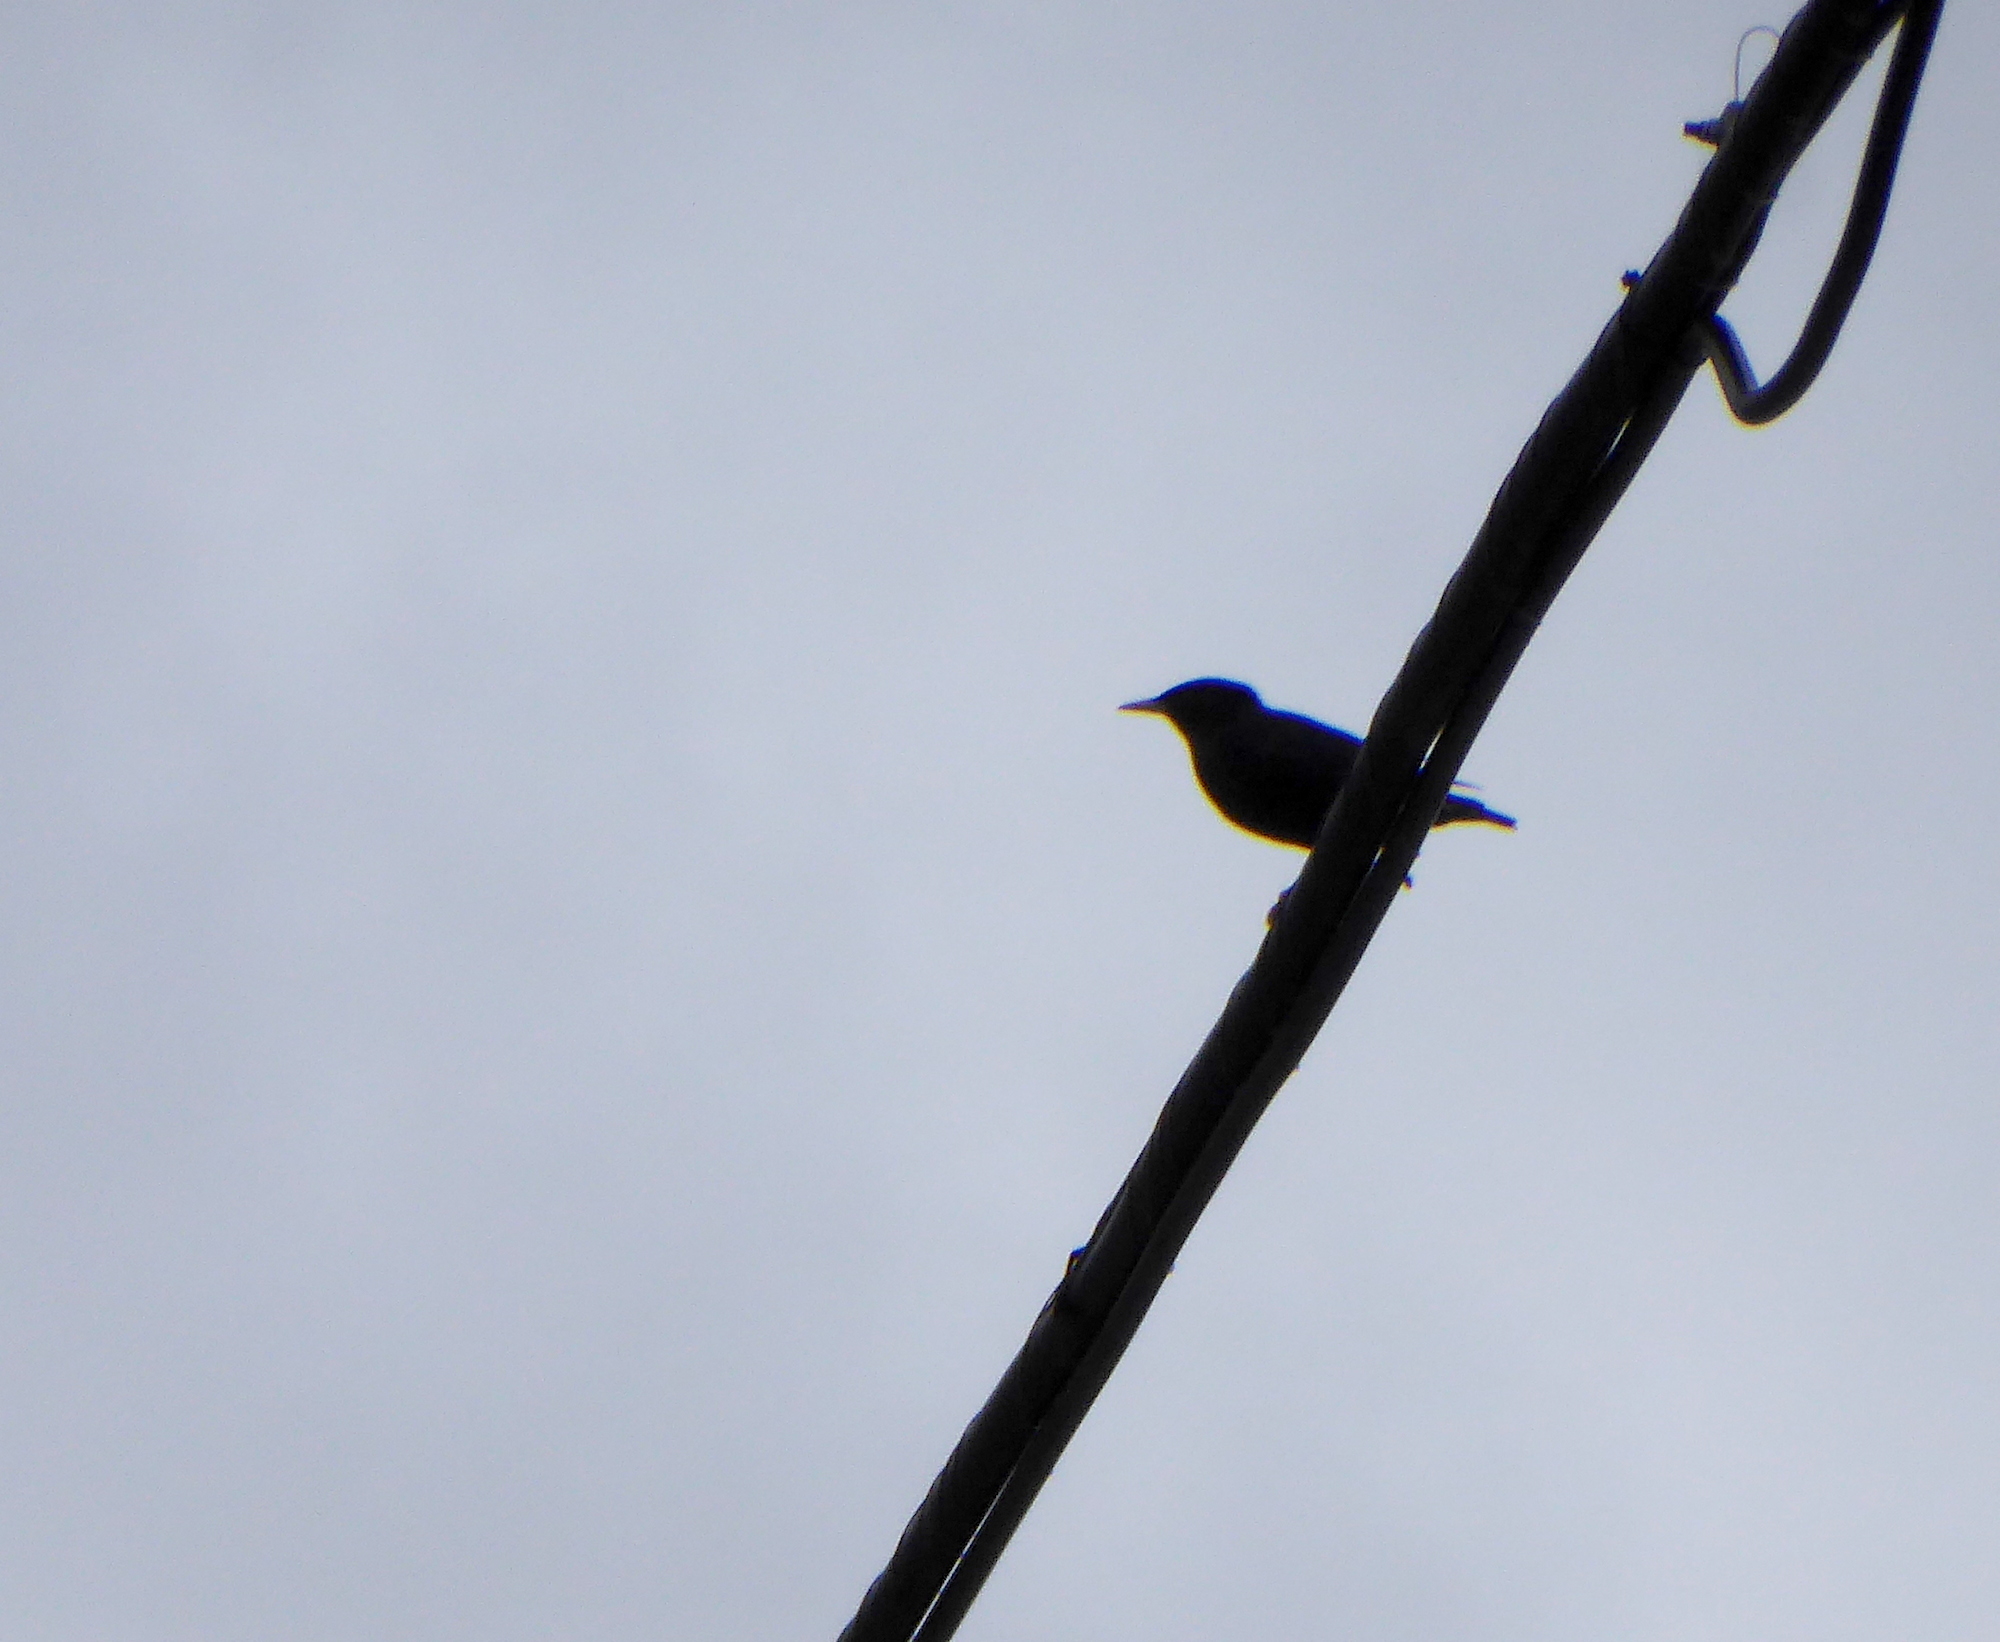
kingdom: Animalia
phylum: Chordata
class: Aves
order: Passeriformes
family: Sturnidae
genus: Sturnus
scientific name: Sturnus vulgaris
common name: Common starling
